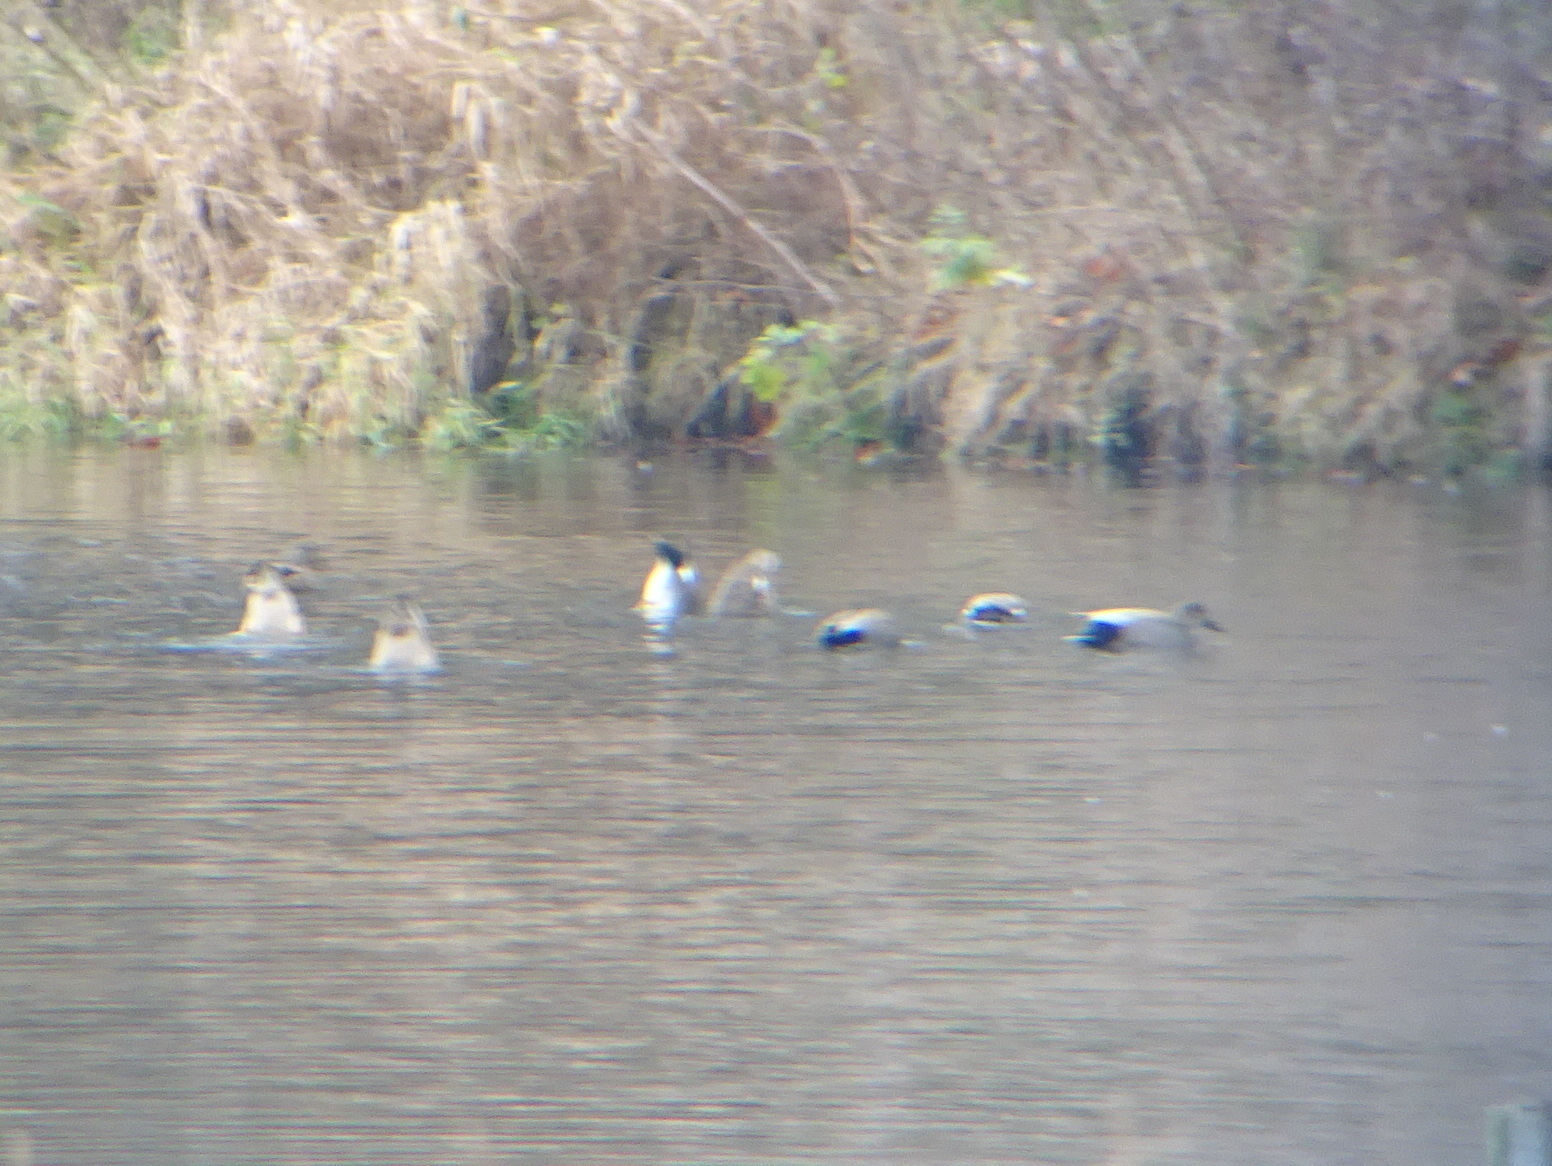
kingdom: Animalia
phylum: Chordata
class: Aves
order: Anseriformes
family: Anatidae
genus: Mareca
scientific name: Mareca strepera
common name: Gadwall
